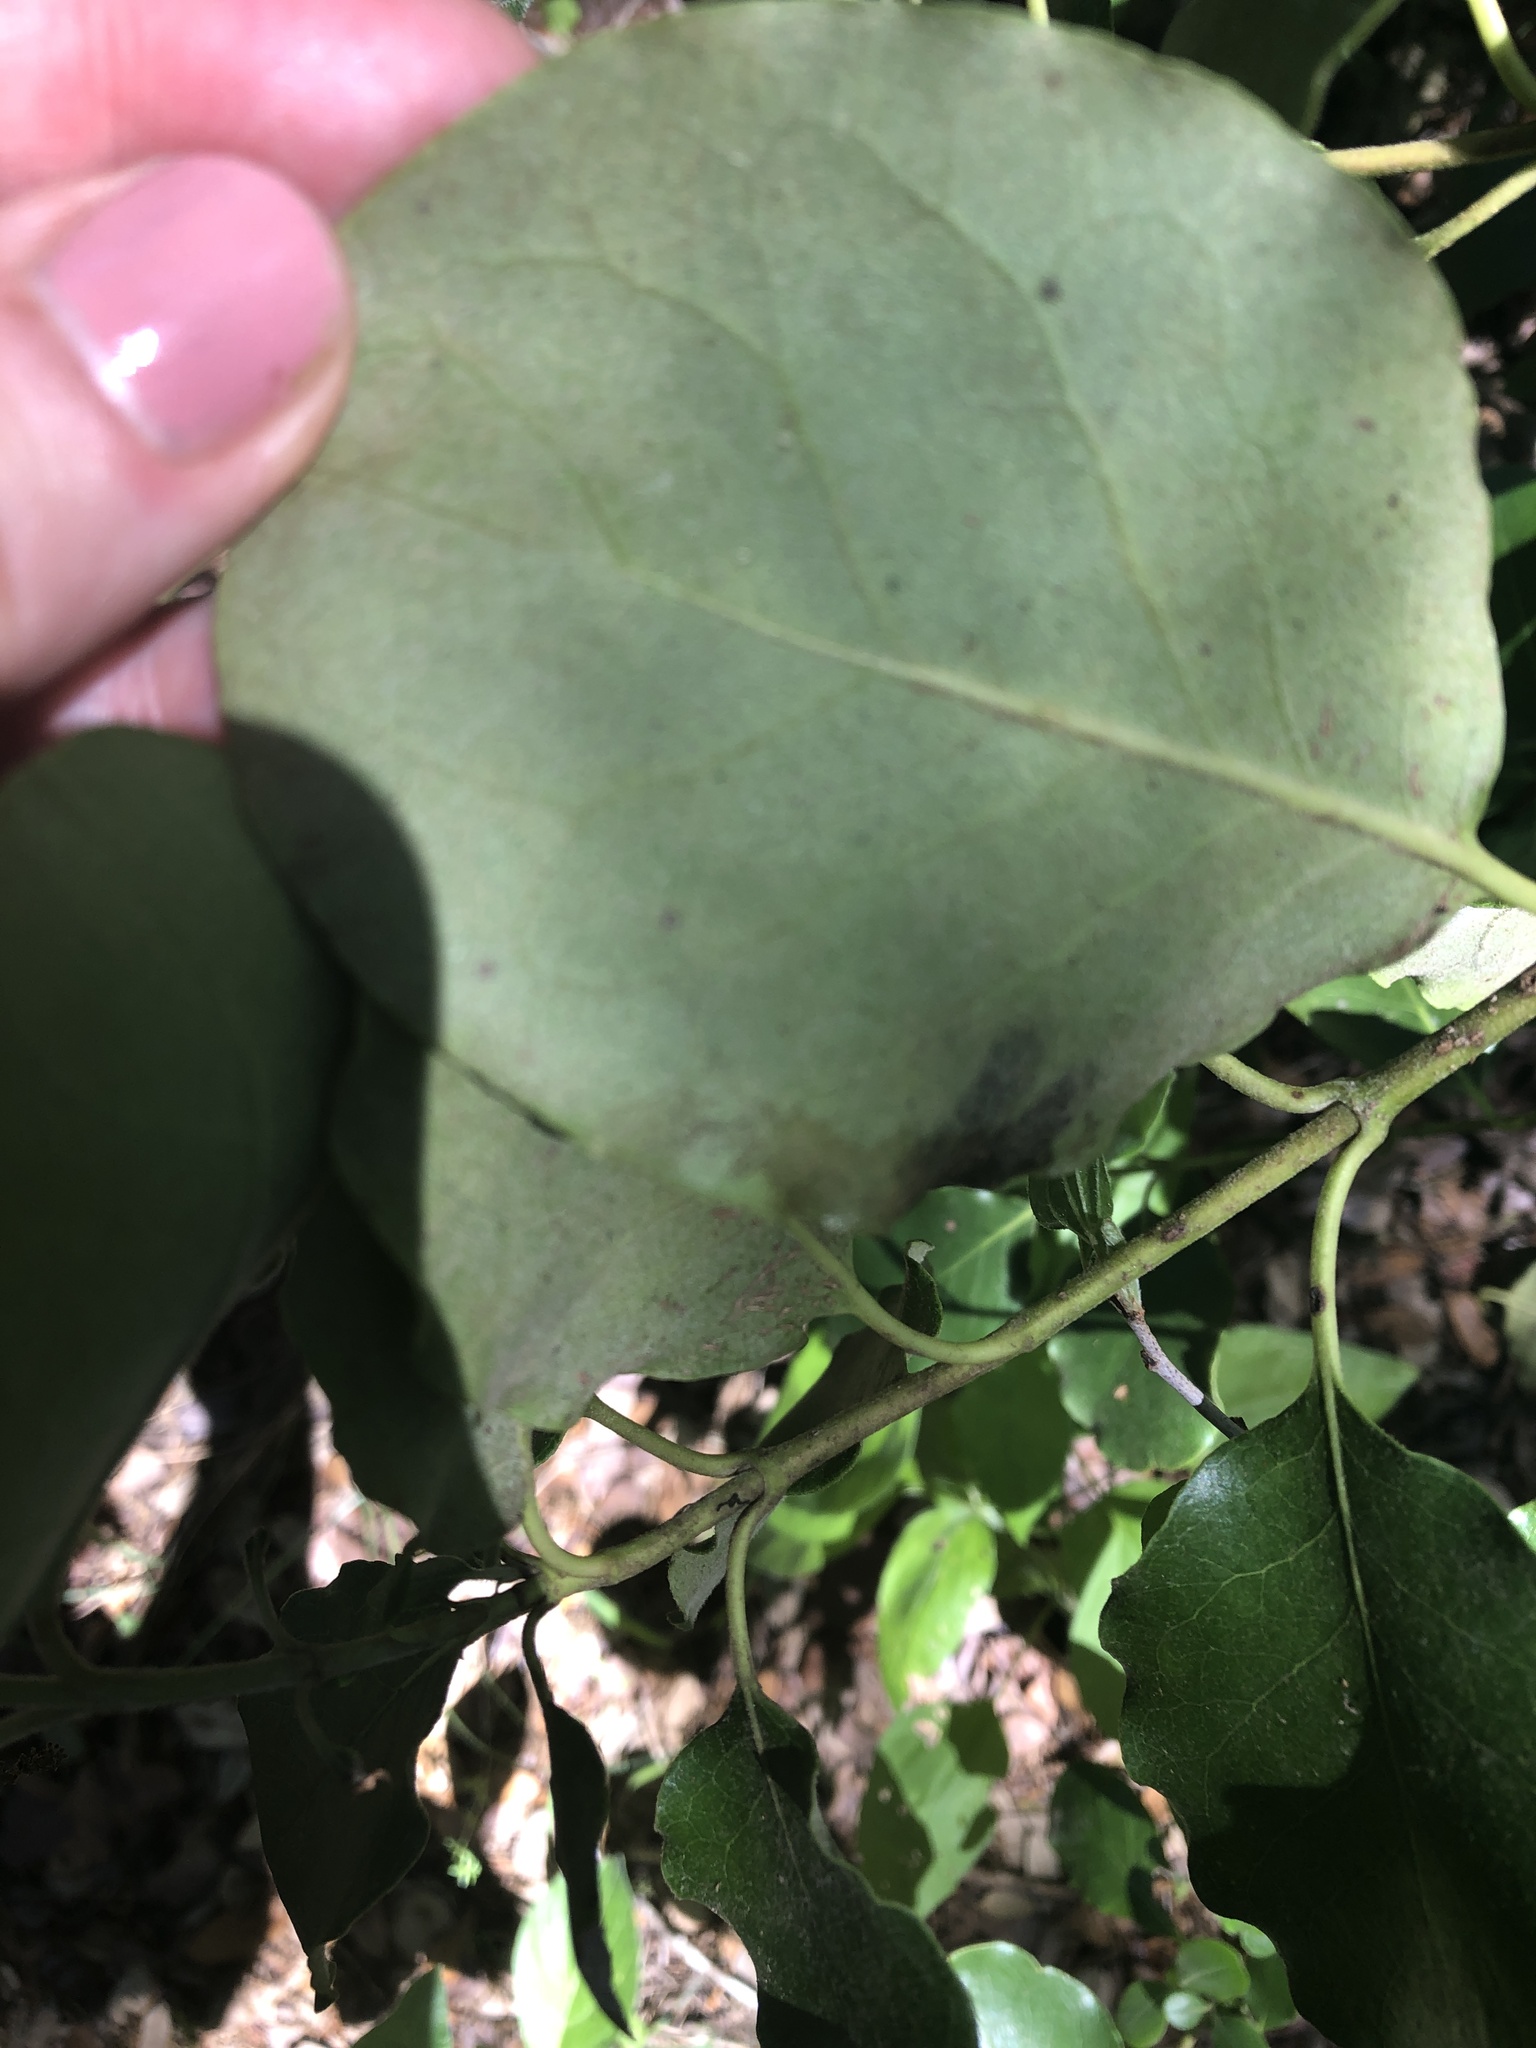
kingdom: Plantae
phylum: Tracheophyta
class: Magnoliopsida
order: Garryales
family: Garryaceae
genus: Garrya
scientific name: Garrya lindheimeri
